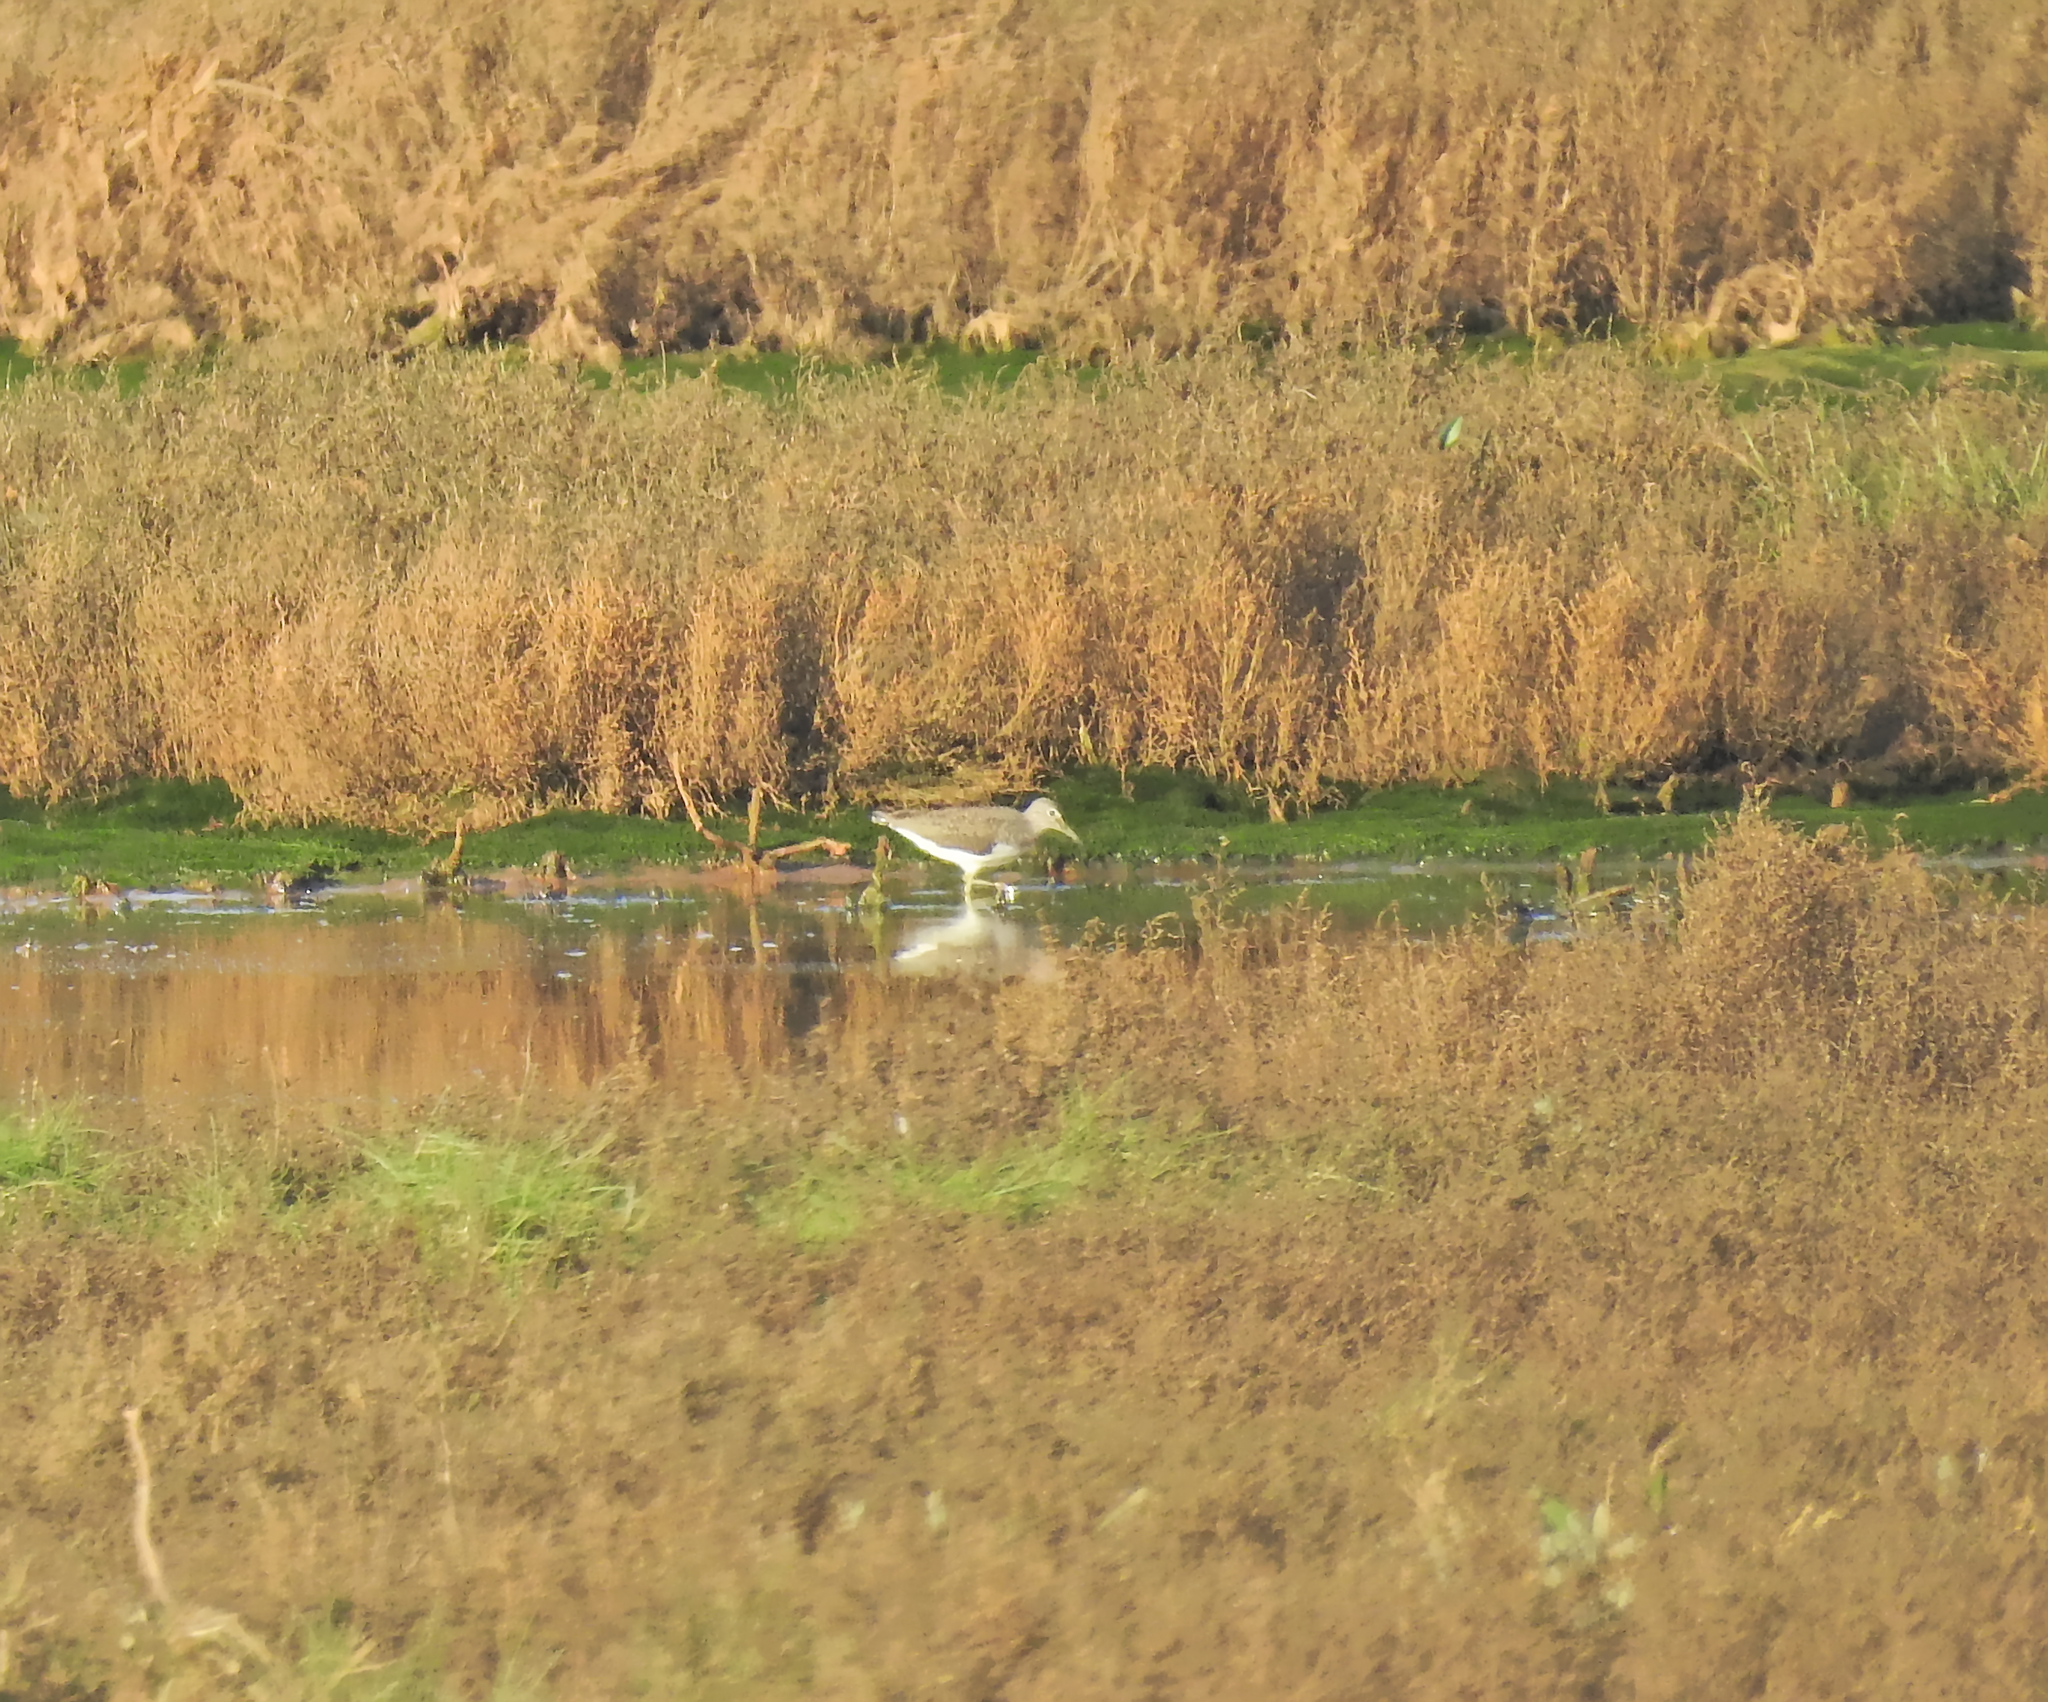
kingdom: Animalia
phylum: Chordata
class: Aves
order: Charadriiformes
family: Scolopacidae
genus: Tringa
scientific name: Tringa ochropus
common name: Green sandpiper
